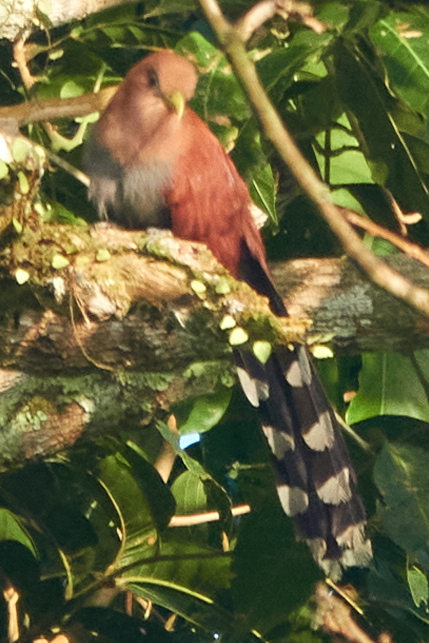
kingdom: Animalia
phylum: Chordata
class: Aves
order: Cuculiformes
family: Cuculidae
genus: Piaya
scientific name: Piaya cayana
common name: Squirrel cuckoo
